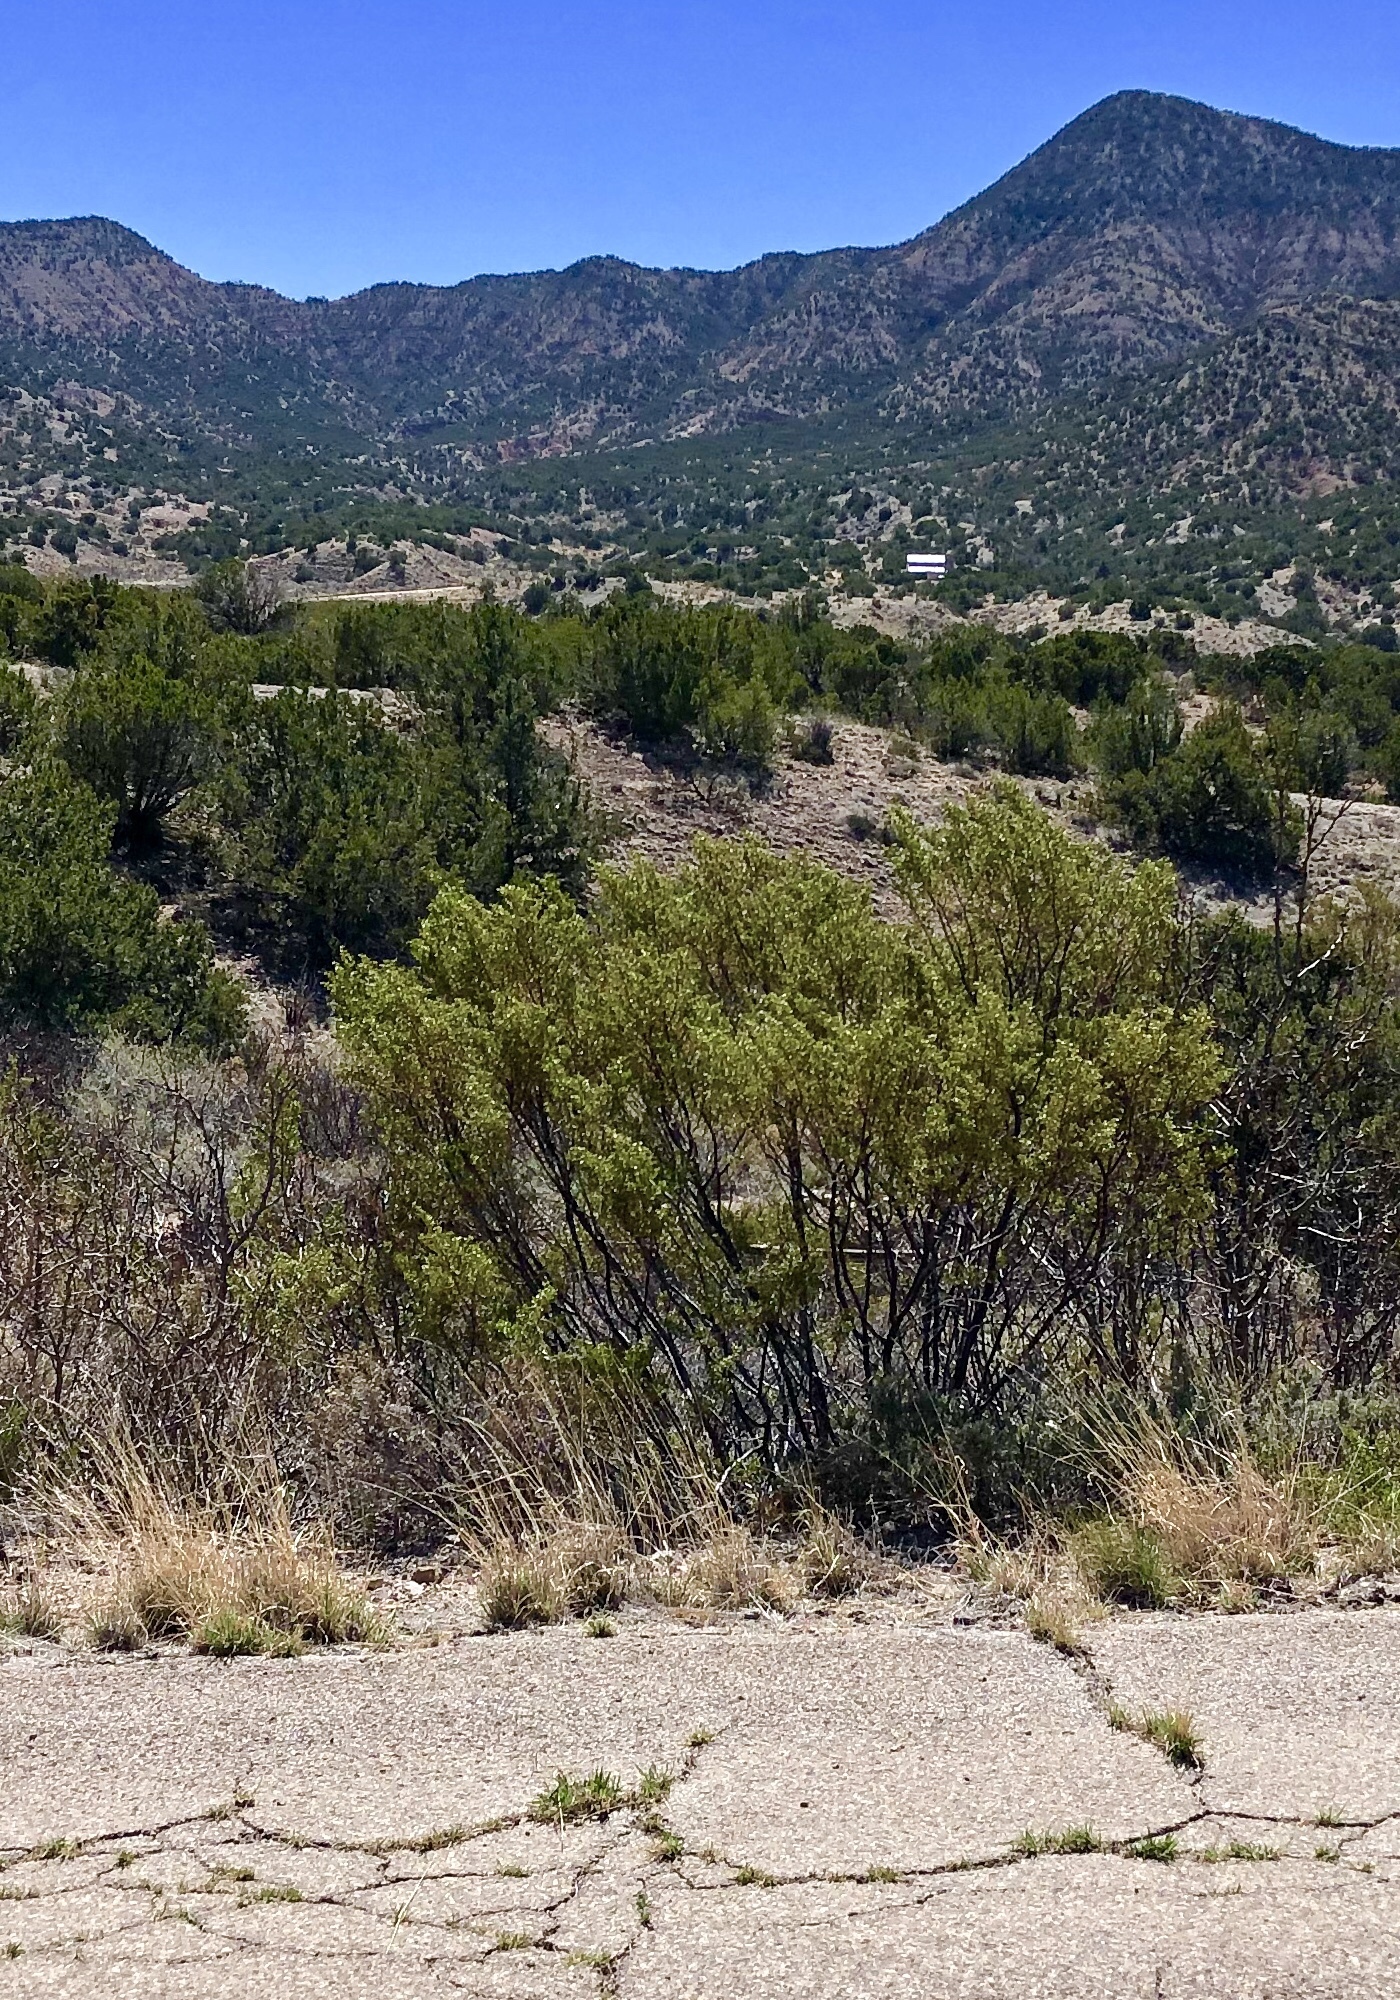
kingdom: Plantae
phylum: Tracheophyta
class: Magnoliopsida
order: Zygophyllales
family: Zygophyllaceae
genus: Larrea
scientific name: Larrea tridentata
